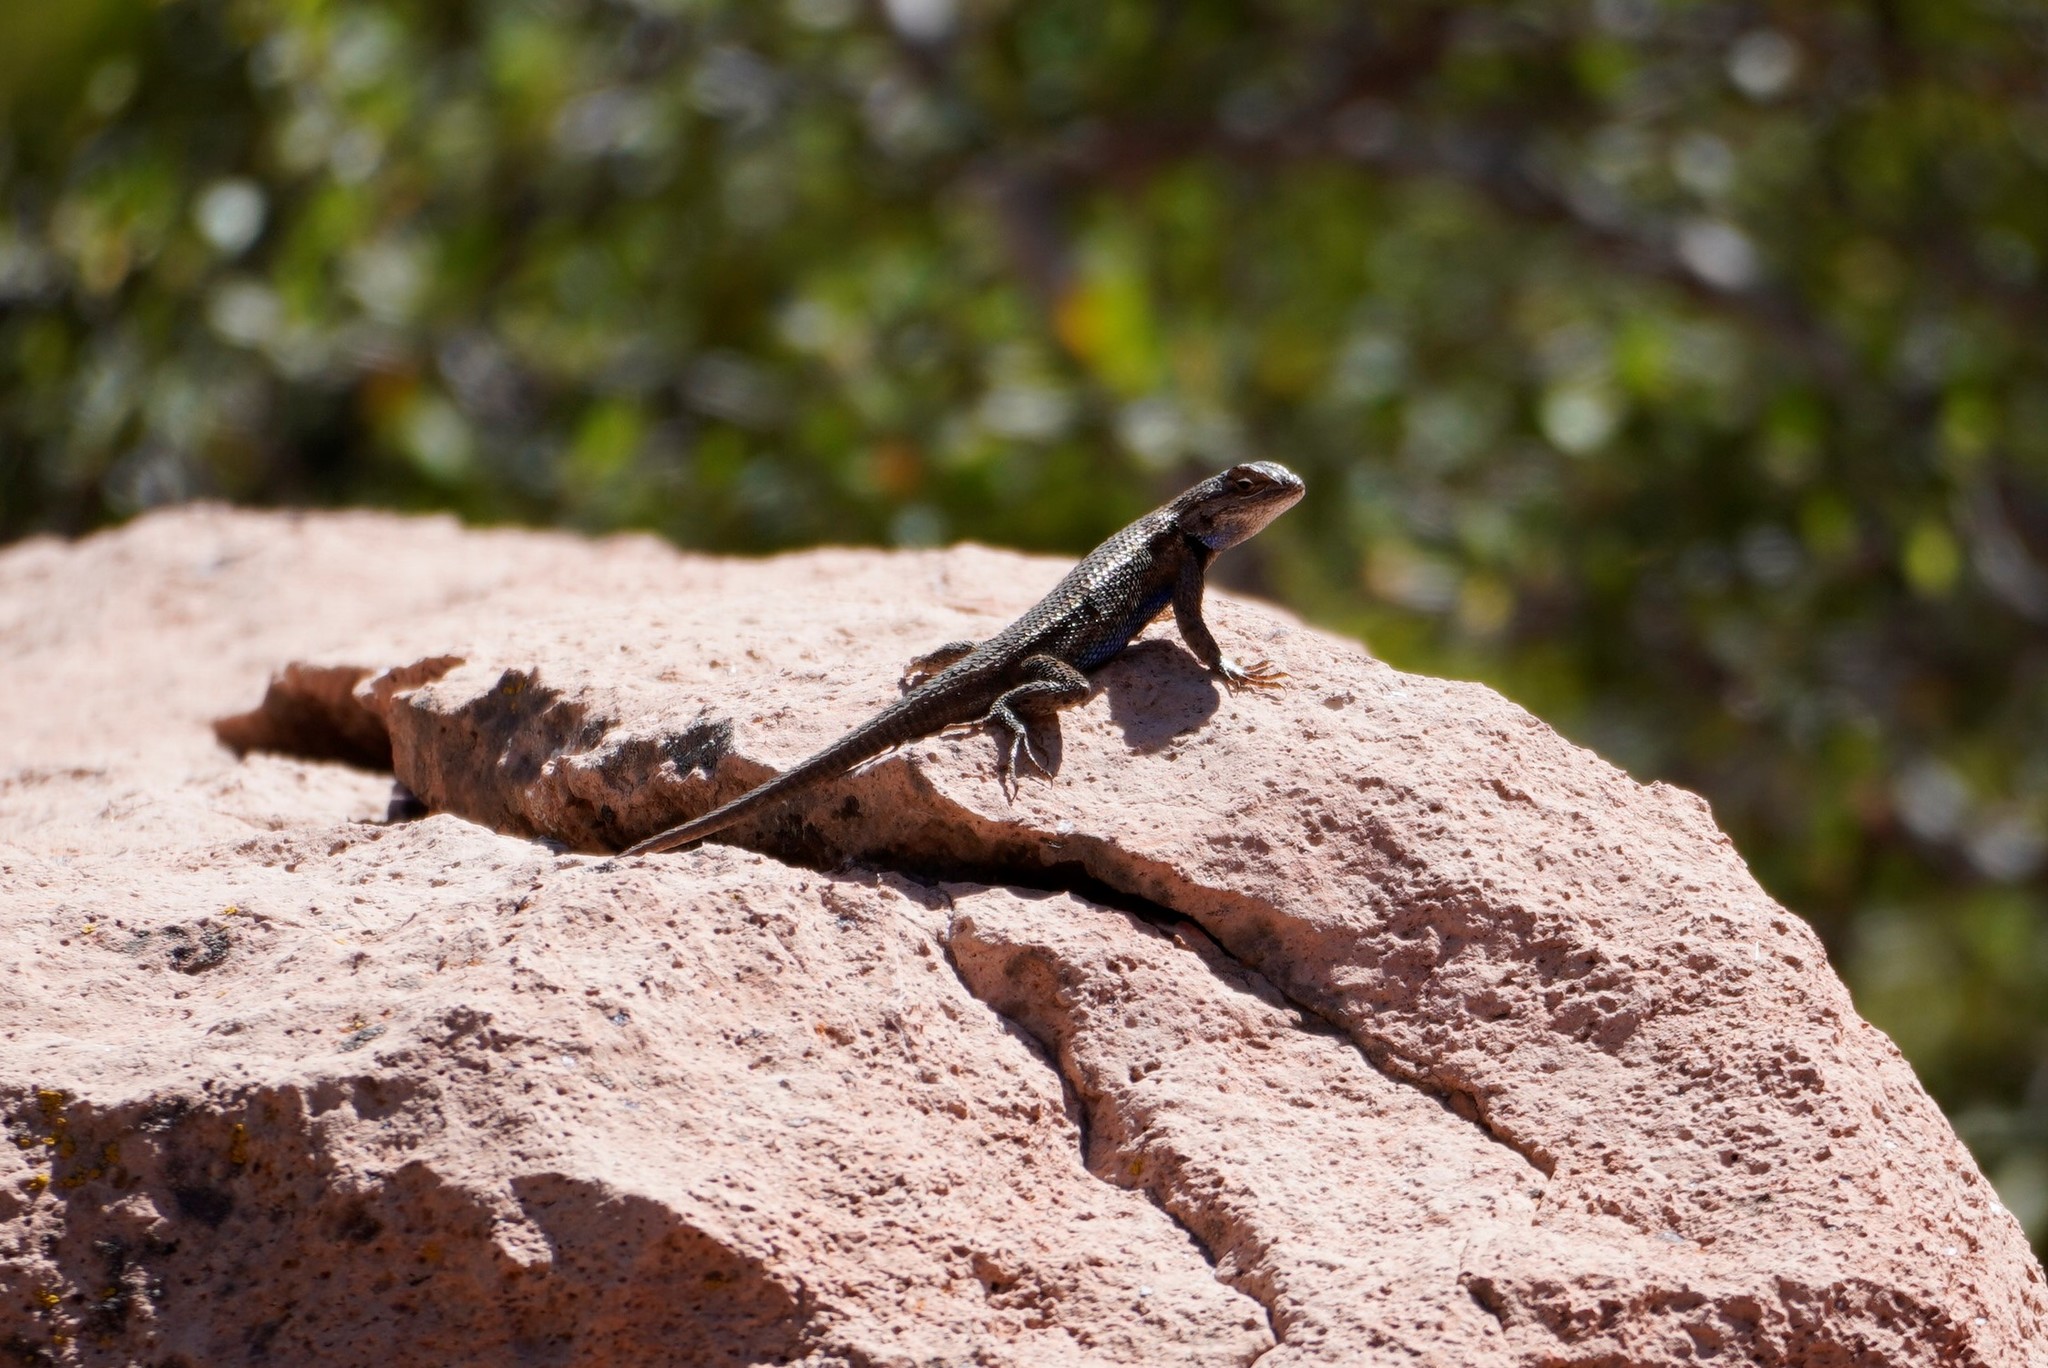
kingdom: Animalia
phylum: Chordata
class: Squamata
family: Phrynosomatidae
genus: Sceloporus
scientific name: Sceloporus tristichus
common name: Plateau fence lizard
